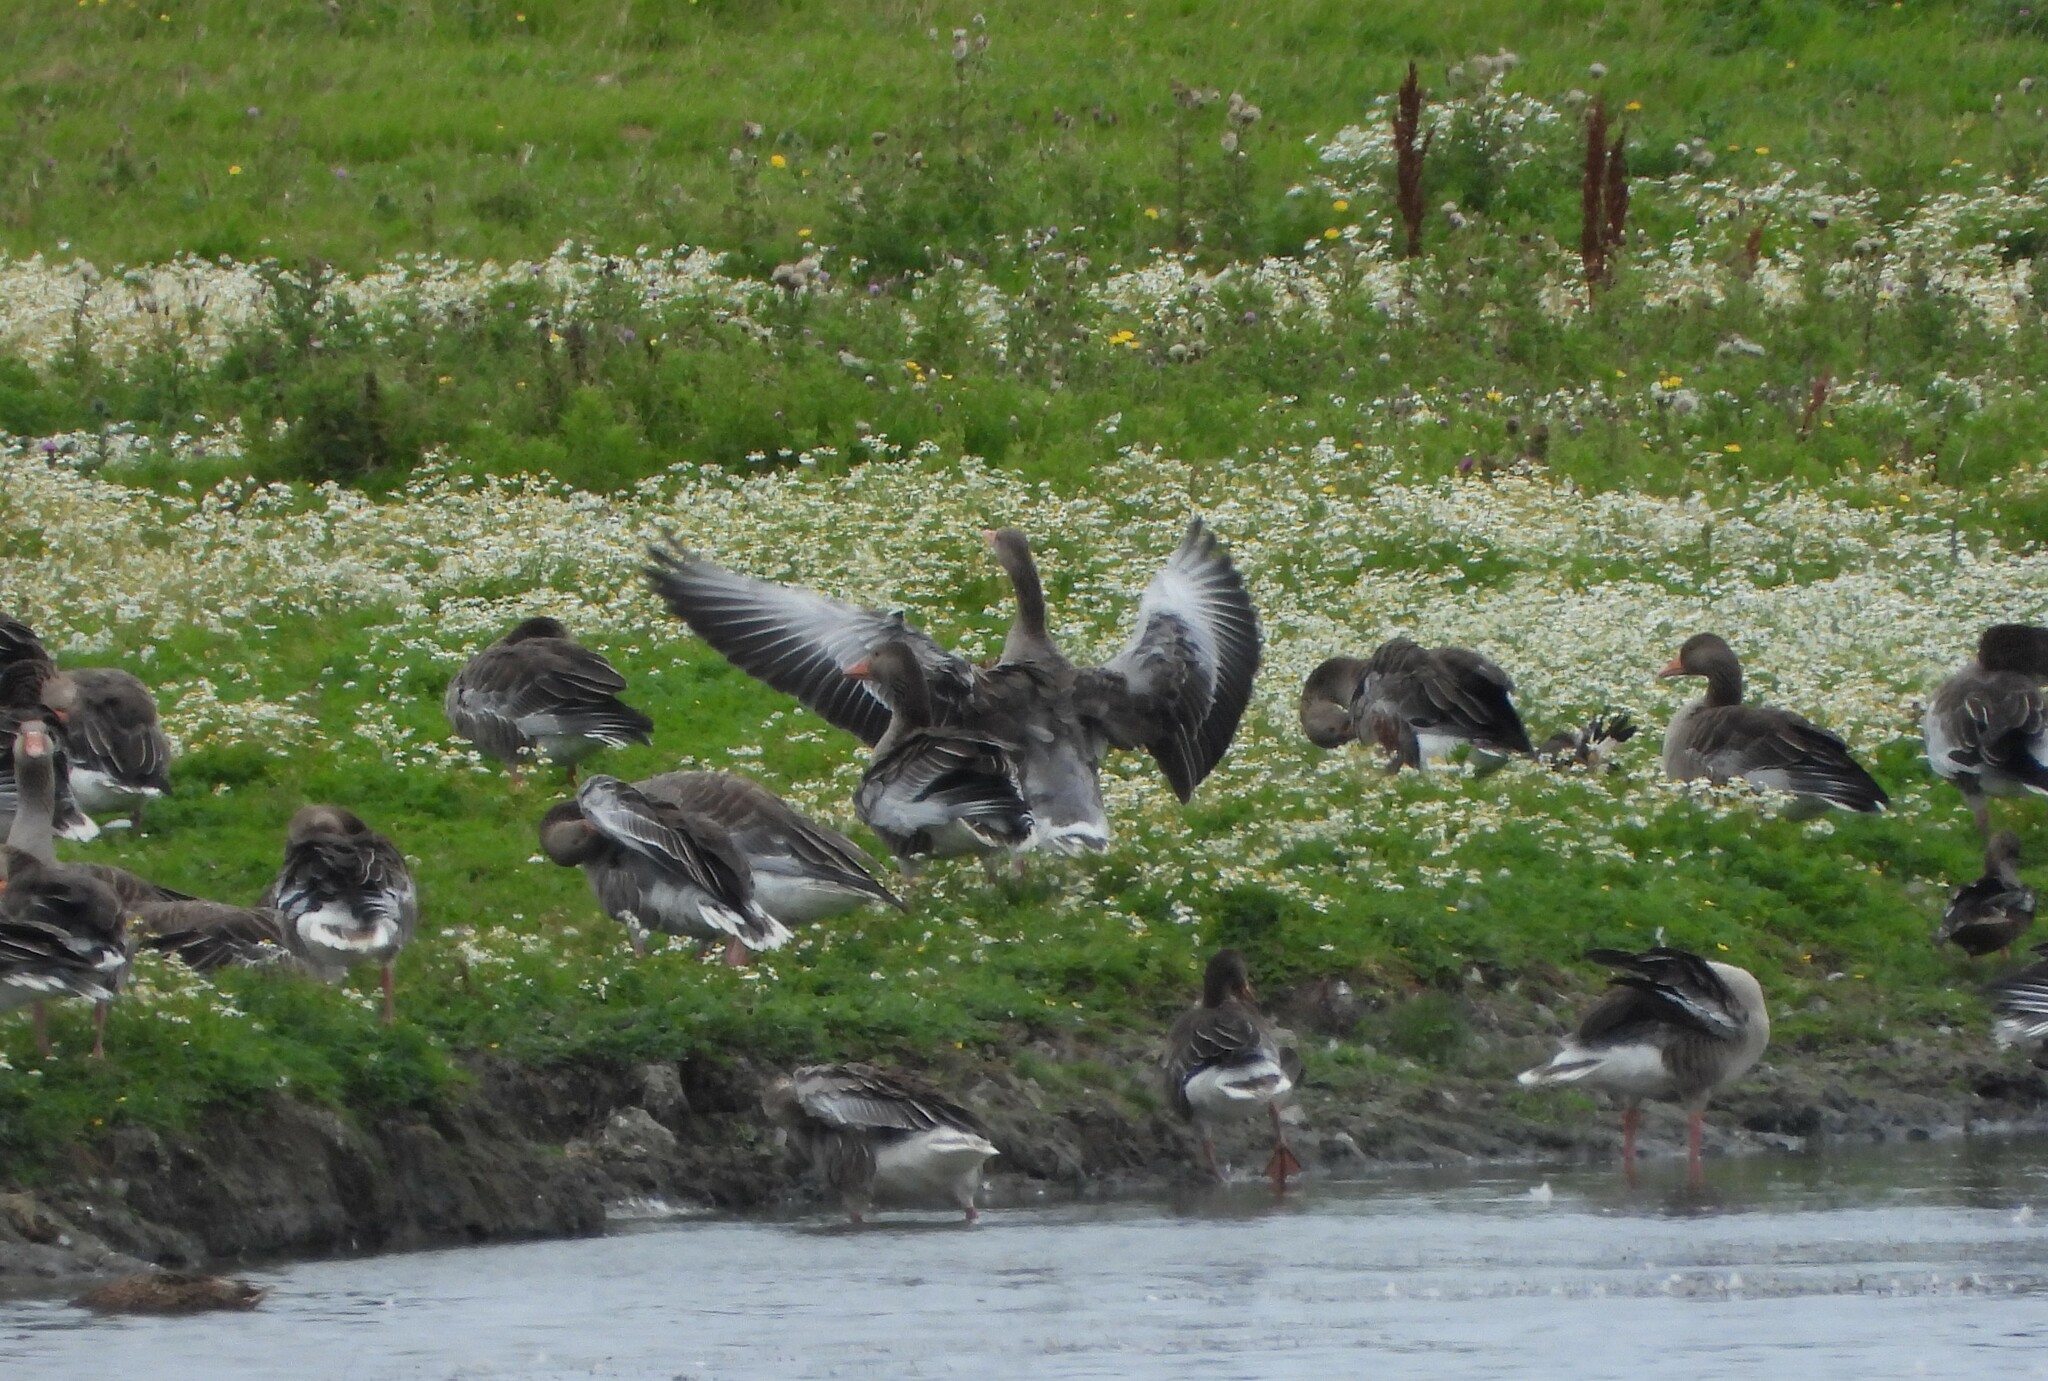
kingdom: Animalia
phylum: Chordata
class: Aves
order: Anseriformes
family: Anatidae
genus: Anser
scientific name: Anser anser
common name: Greylag goose
